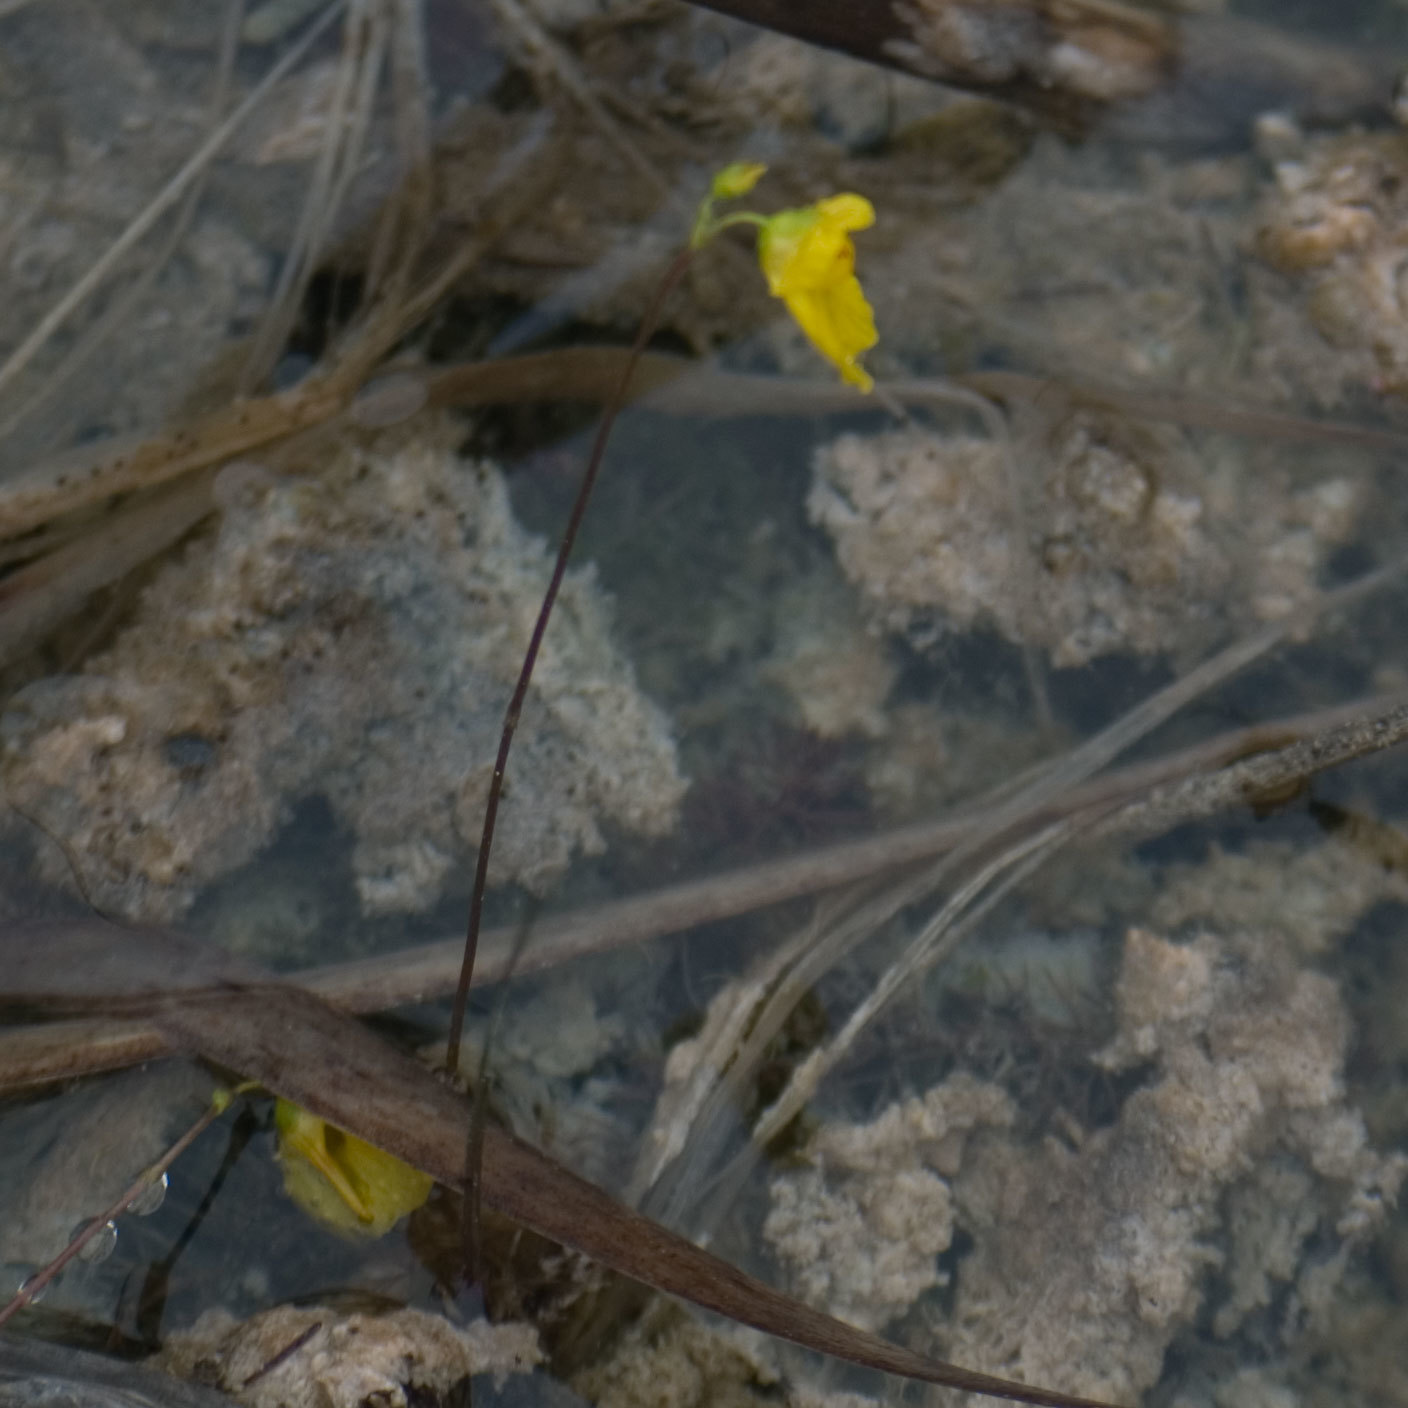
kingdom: Plantae
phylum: Tracheophyta
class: Magnoliopsida
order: Lamiales
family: Lentibulariaceae
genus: Utricularia
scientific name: Utricularia intermedia
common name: Intermediate bladderwort
